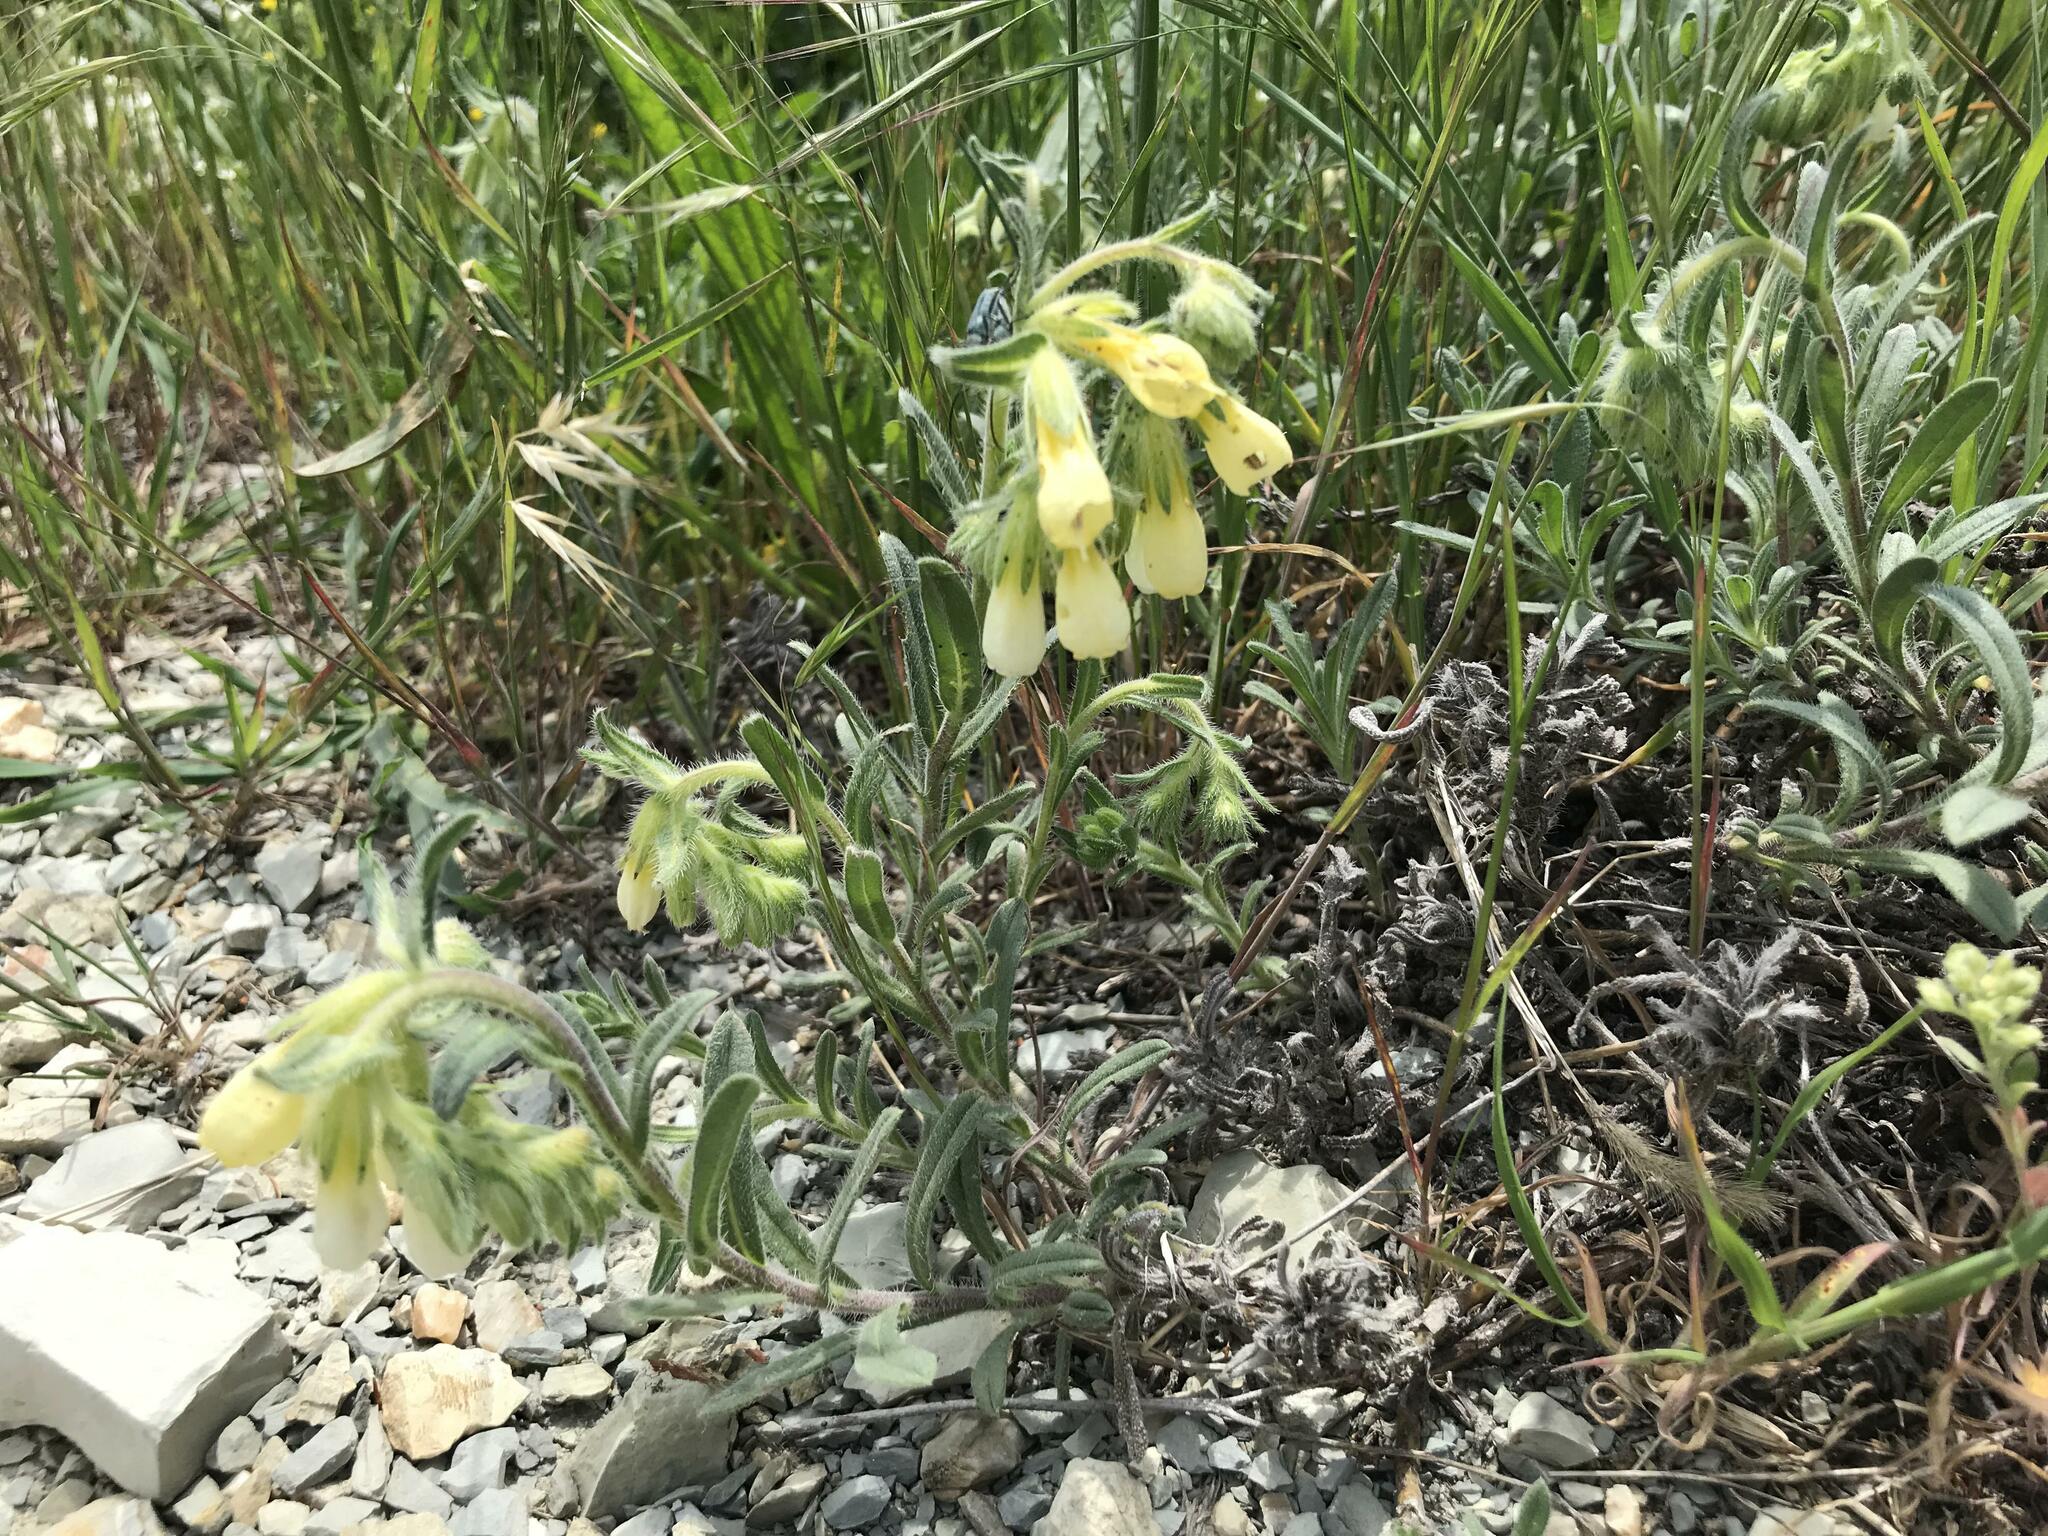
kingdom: Plantae
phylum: Tracheophyta
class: Magnoliopsida
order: Boraginales
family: Boraginaceae
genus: Onosma
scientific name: Onosma taurica
